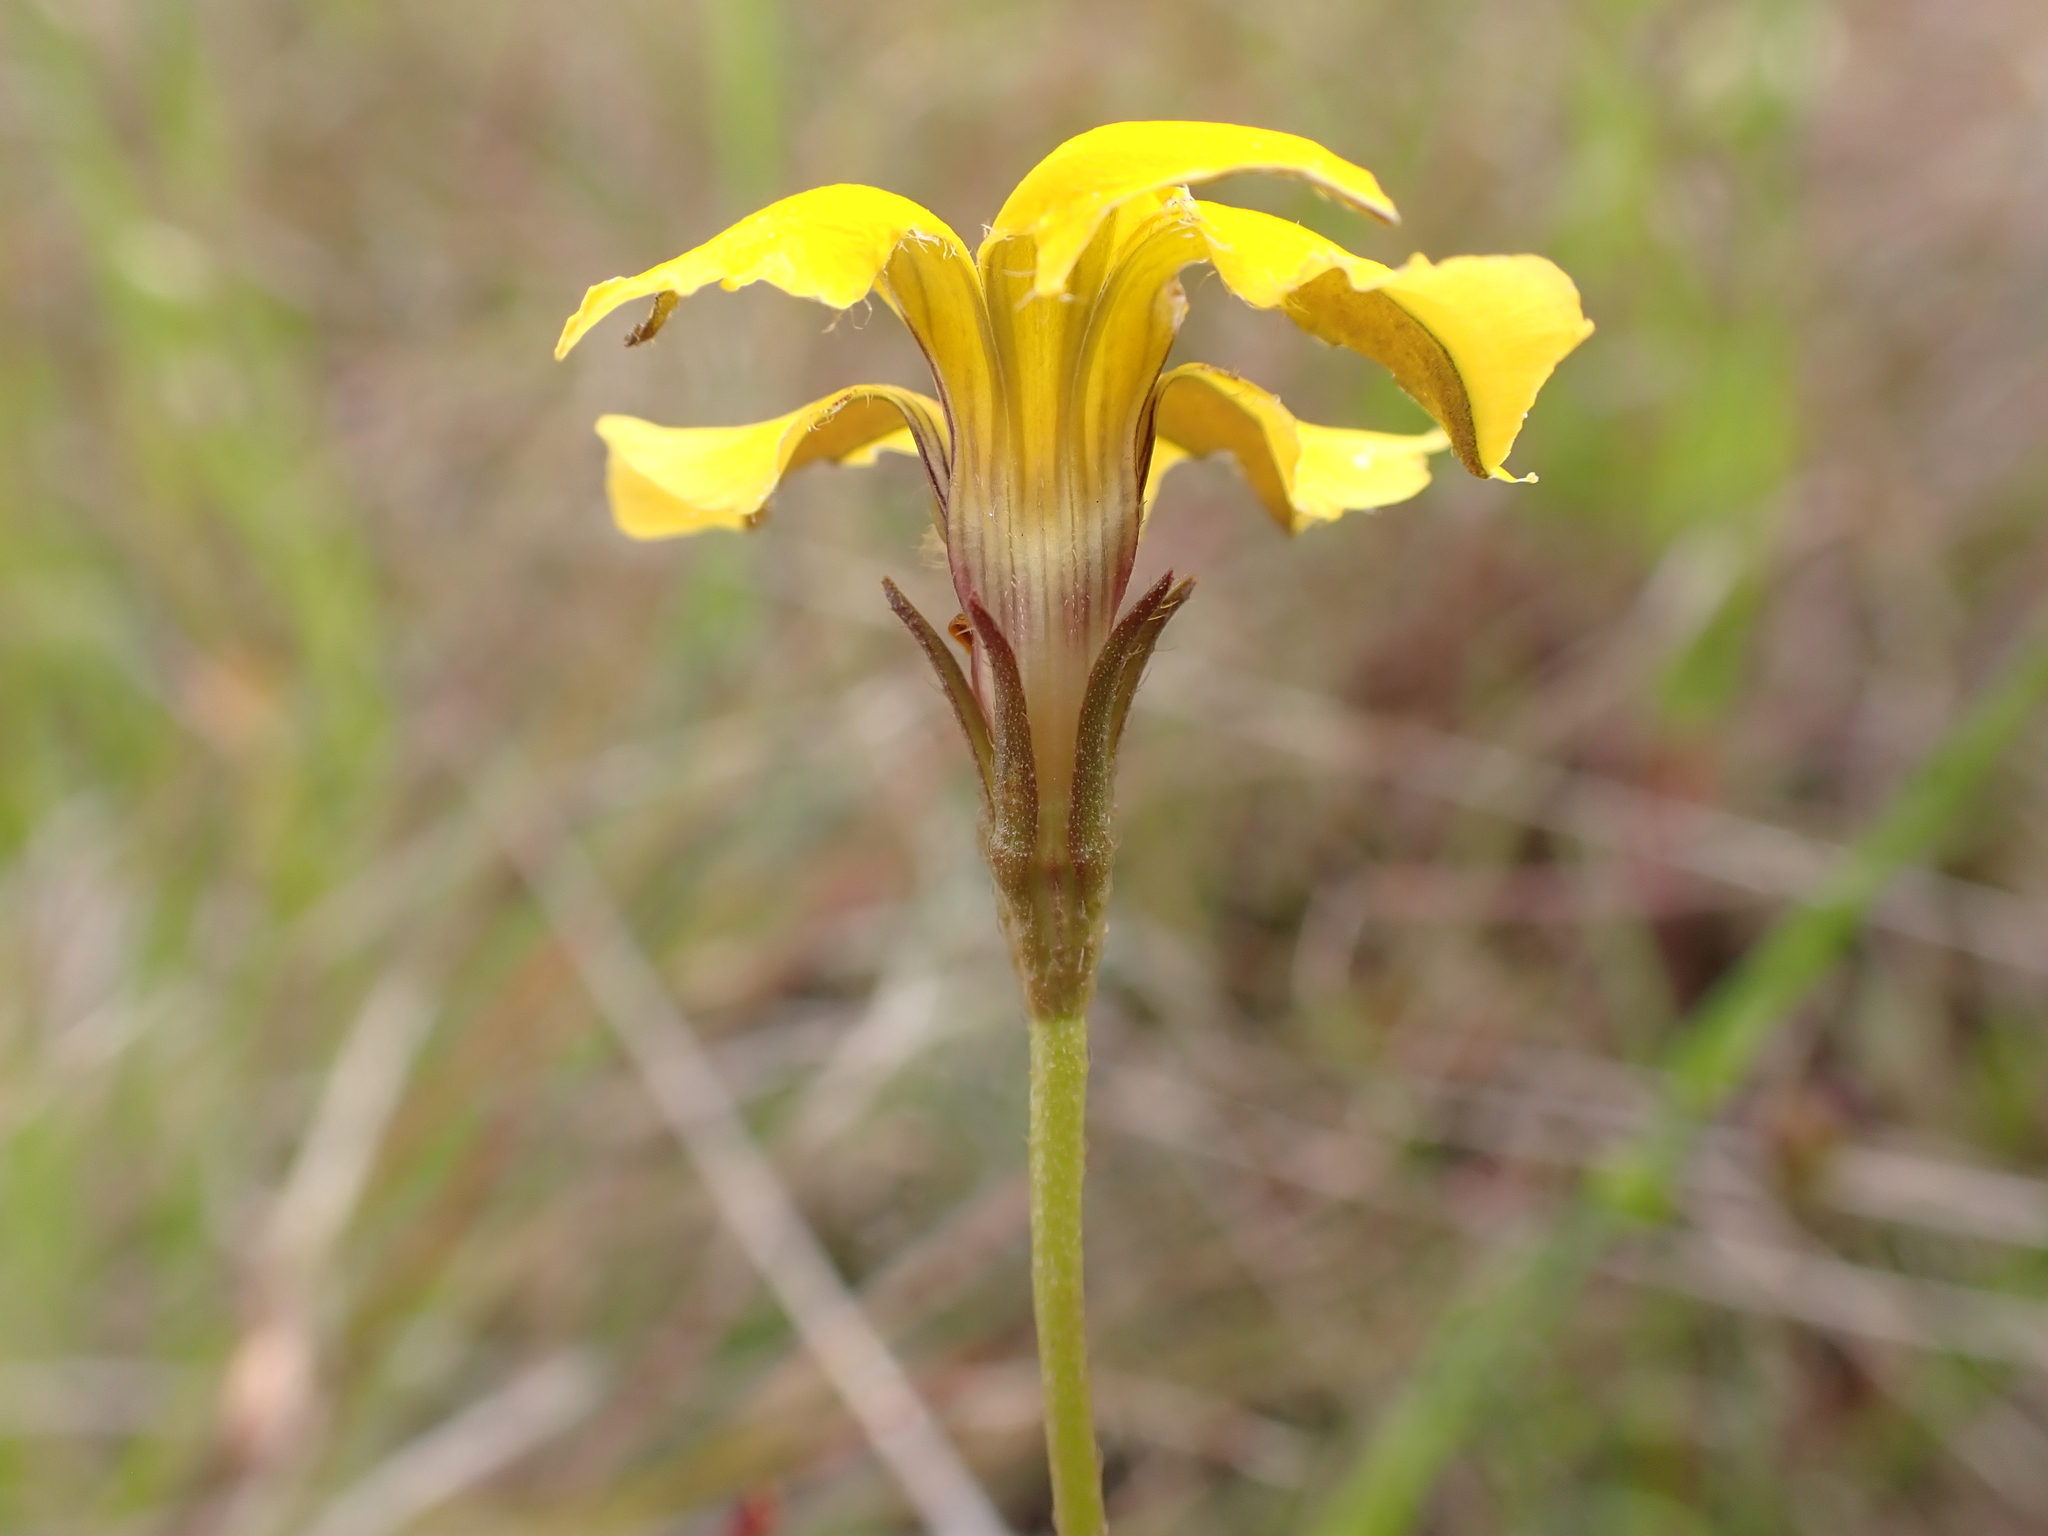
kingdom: Plantae
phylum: Tracheophyta
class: Magnoliopsida
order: Asterales
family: Goodeniaceae
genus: Goodenia
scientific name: Goodenia pinnatifida
